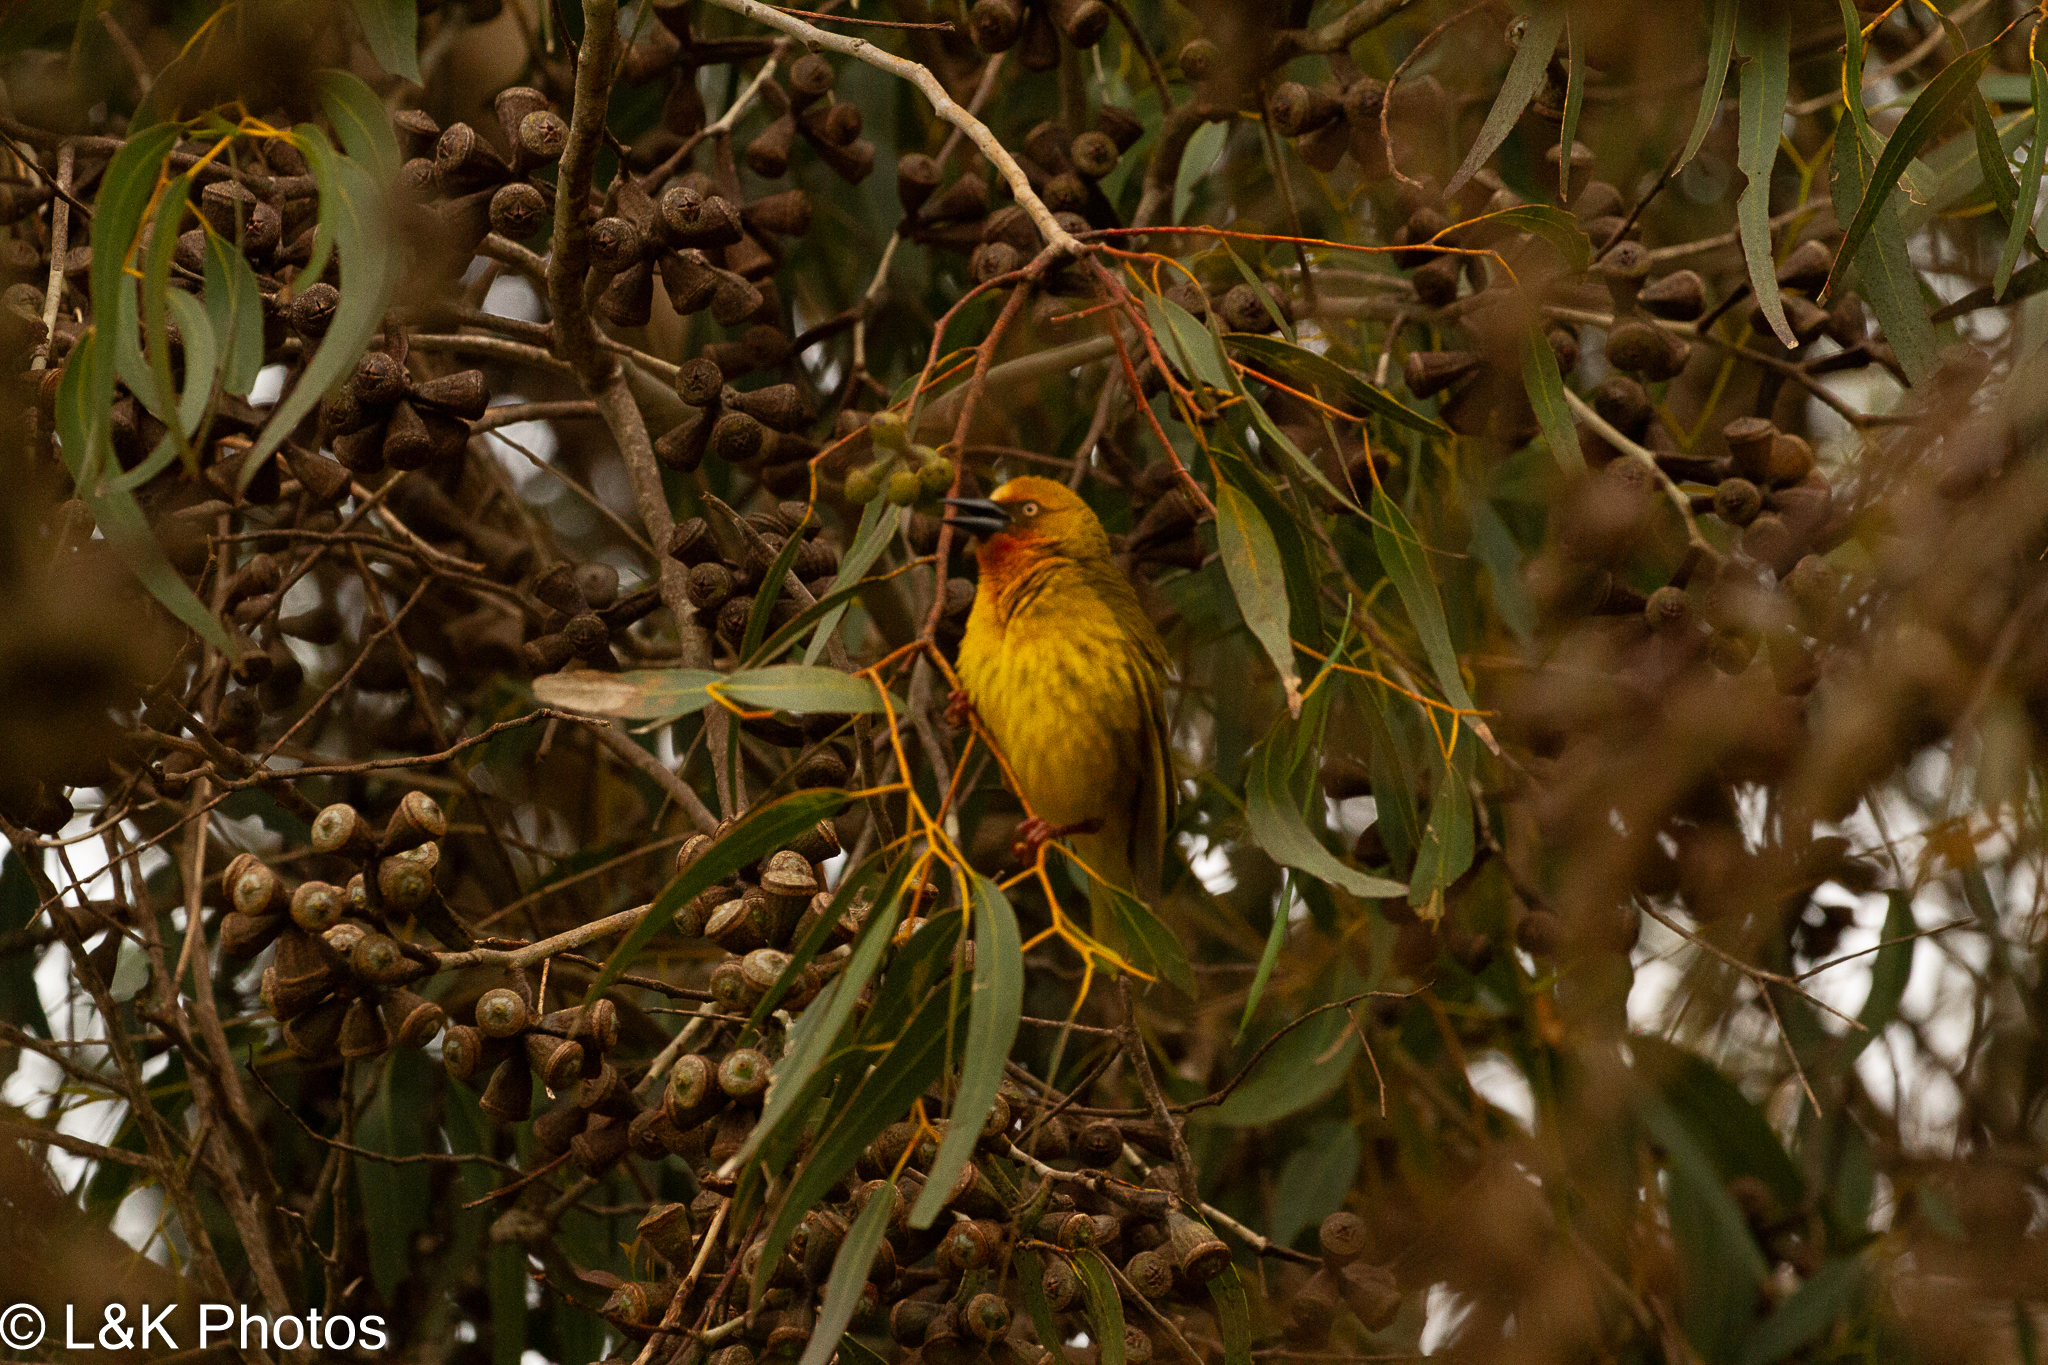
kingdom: Animalia
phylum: Chordata
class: Aves
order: Passeriformes
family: Ploceidae
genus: Ploceus
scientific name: Ploceus capensis
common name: Cape weaver
